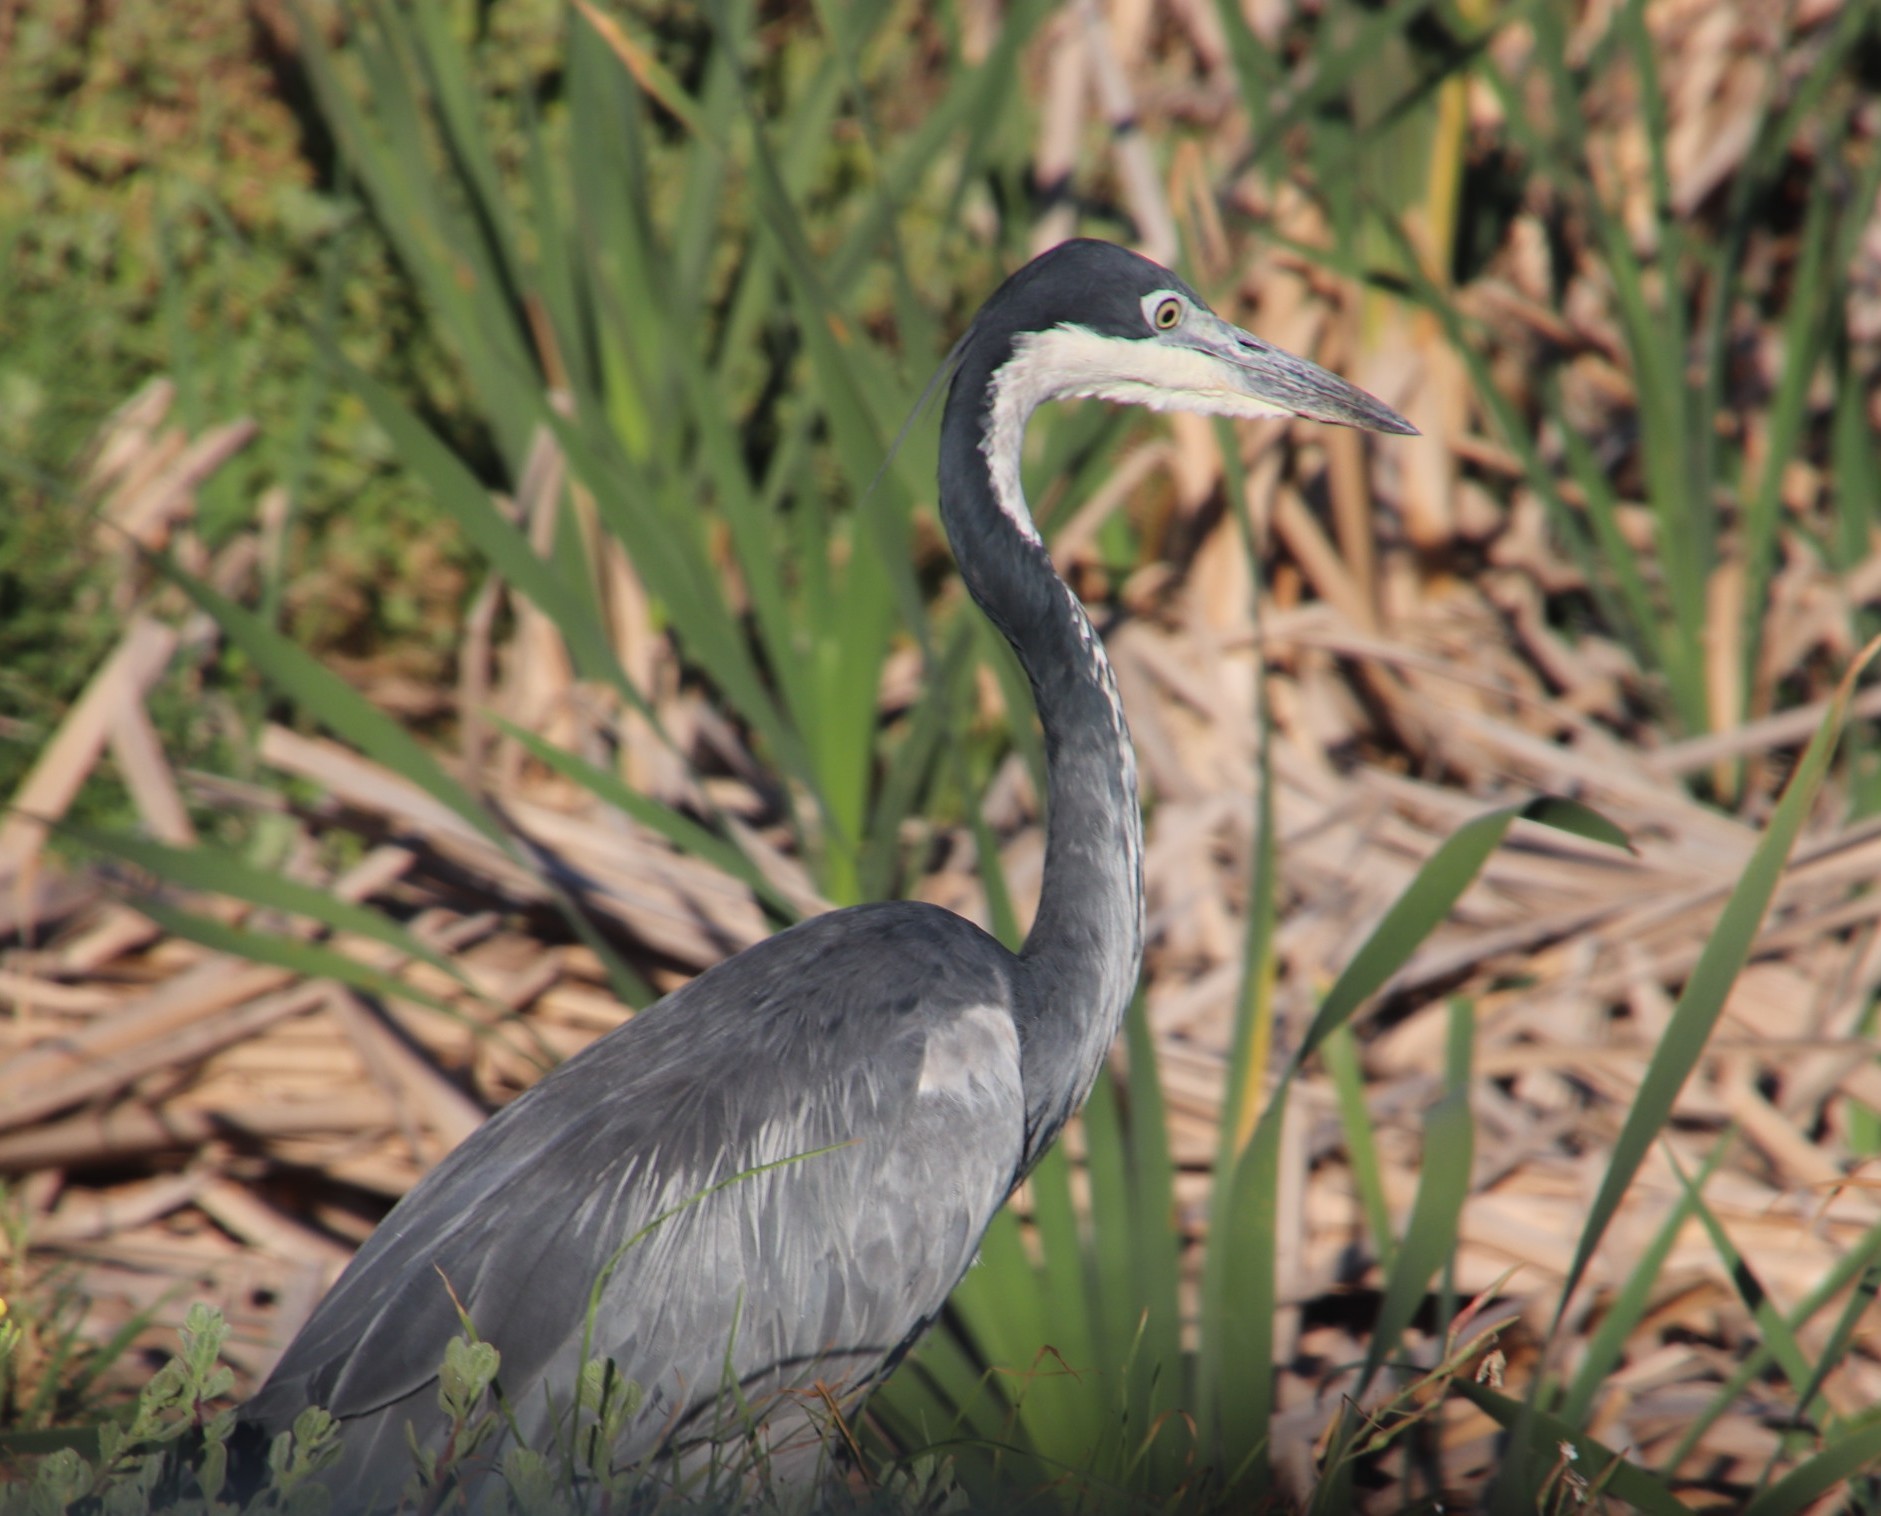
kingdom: Animalia
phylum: Chordata
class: Aves
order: Pelecaniformes
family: Ardeidae
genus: Ardea
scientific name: Ardea melanocephala
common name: Black-headed heron
